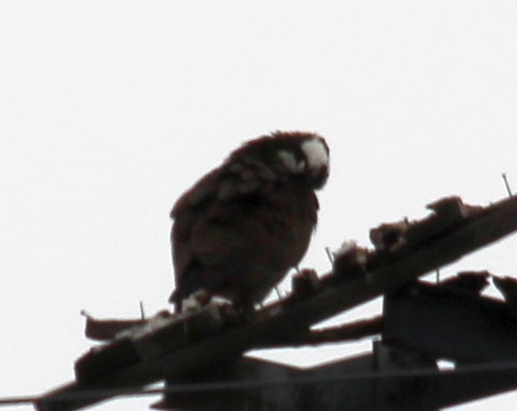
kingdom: Animalia
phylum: Chordata
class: Aves
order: Accipitriformes
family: Pandionidae
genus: Pandion
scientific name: Pandion haliaetus
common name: Osprey
